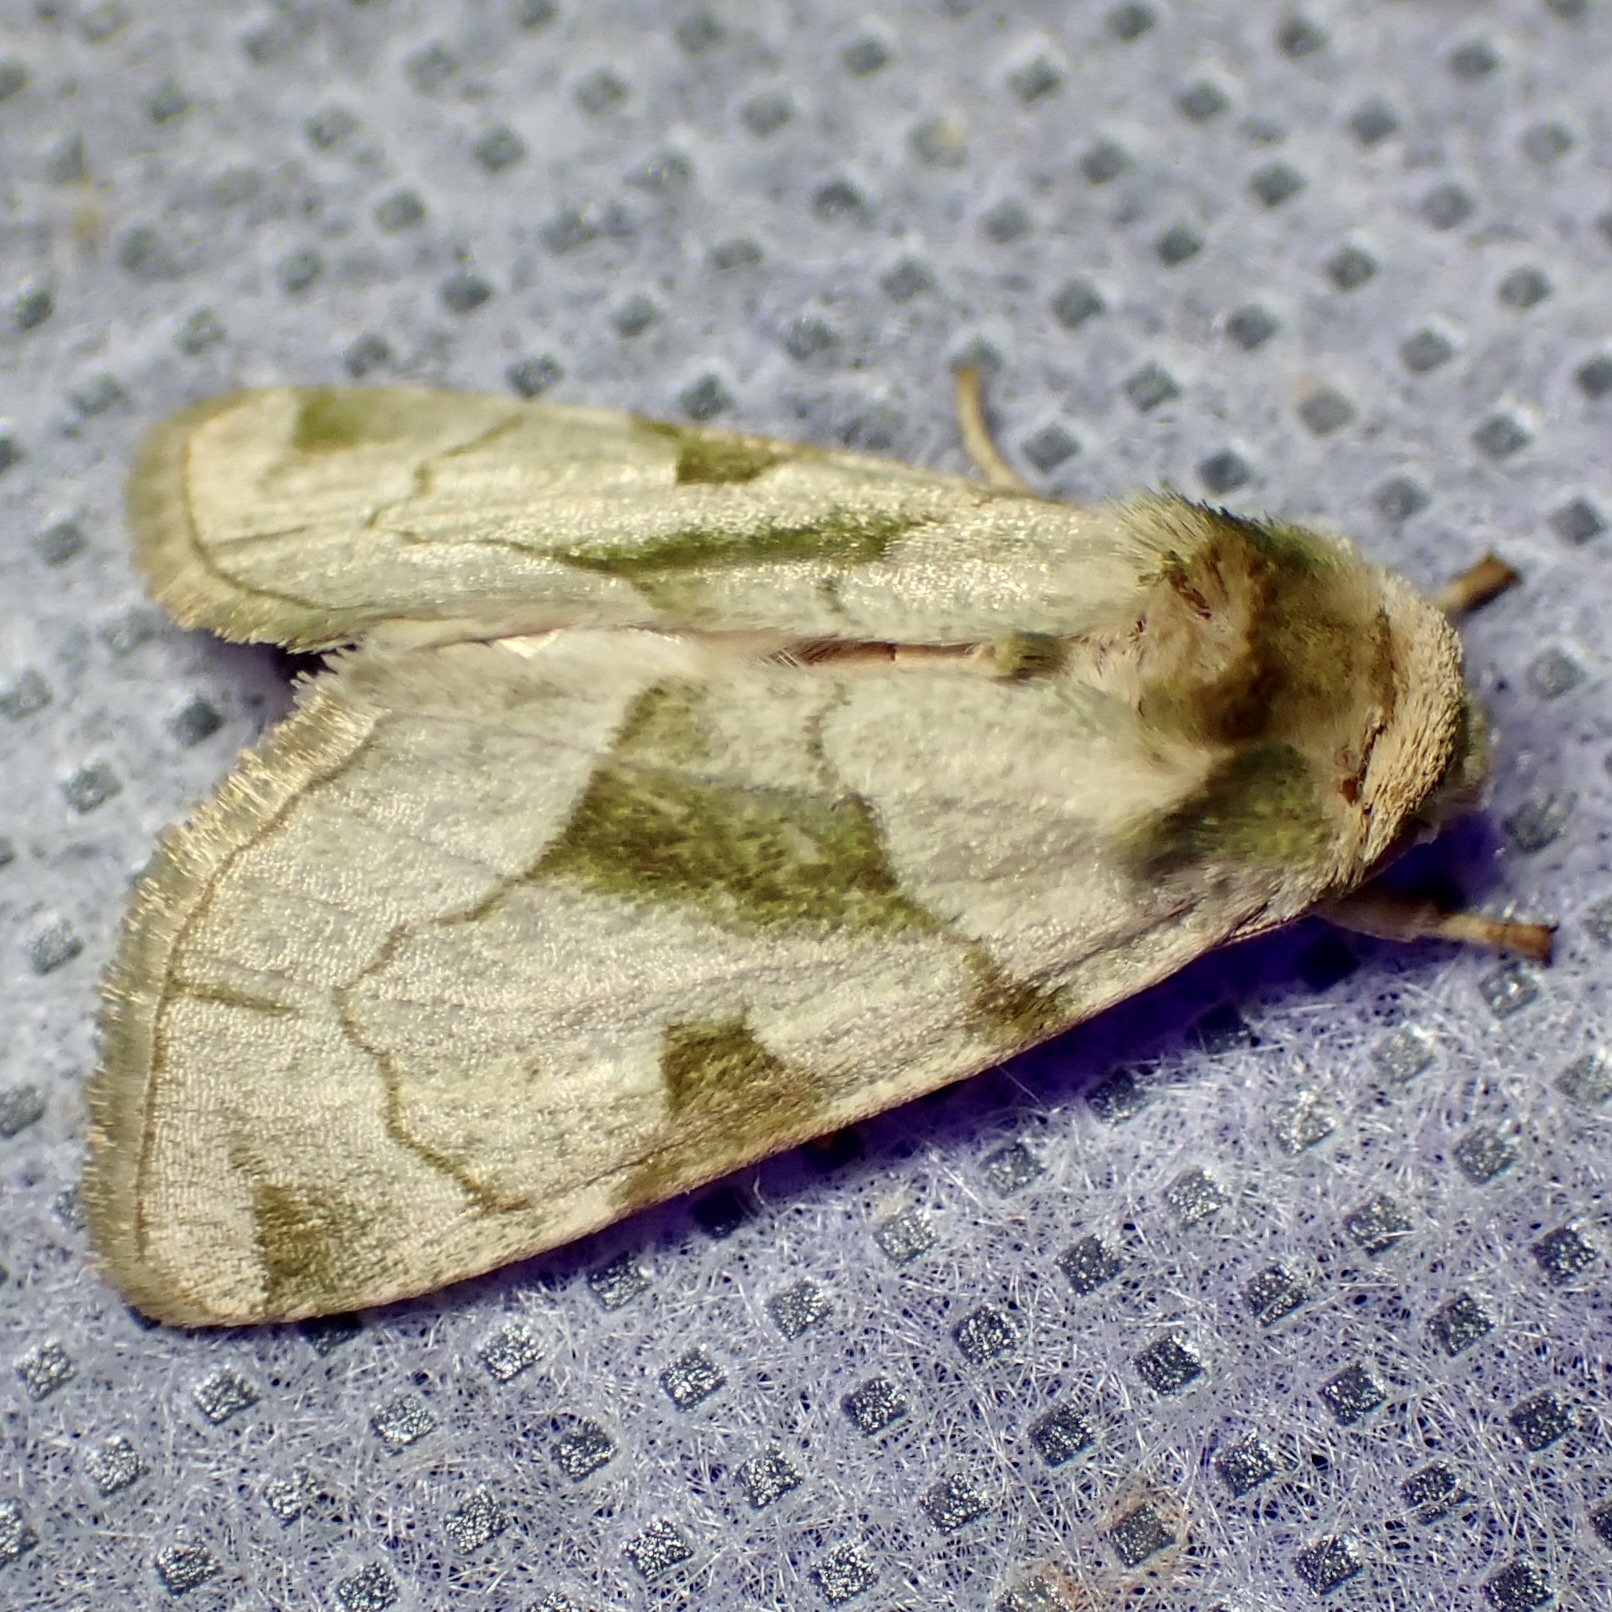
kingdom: Animalia
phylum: Arthropoda
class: Insecta
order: Lepidoptera
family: Noctuidae
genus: Oslaria
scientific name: Oslaria viridifera
